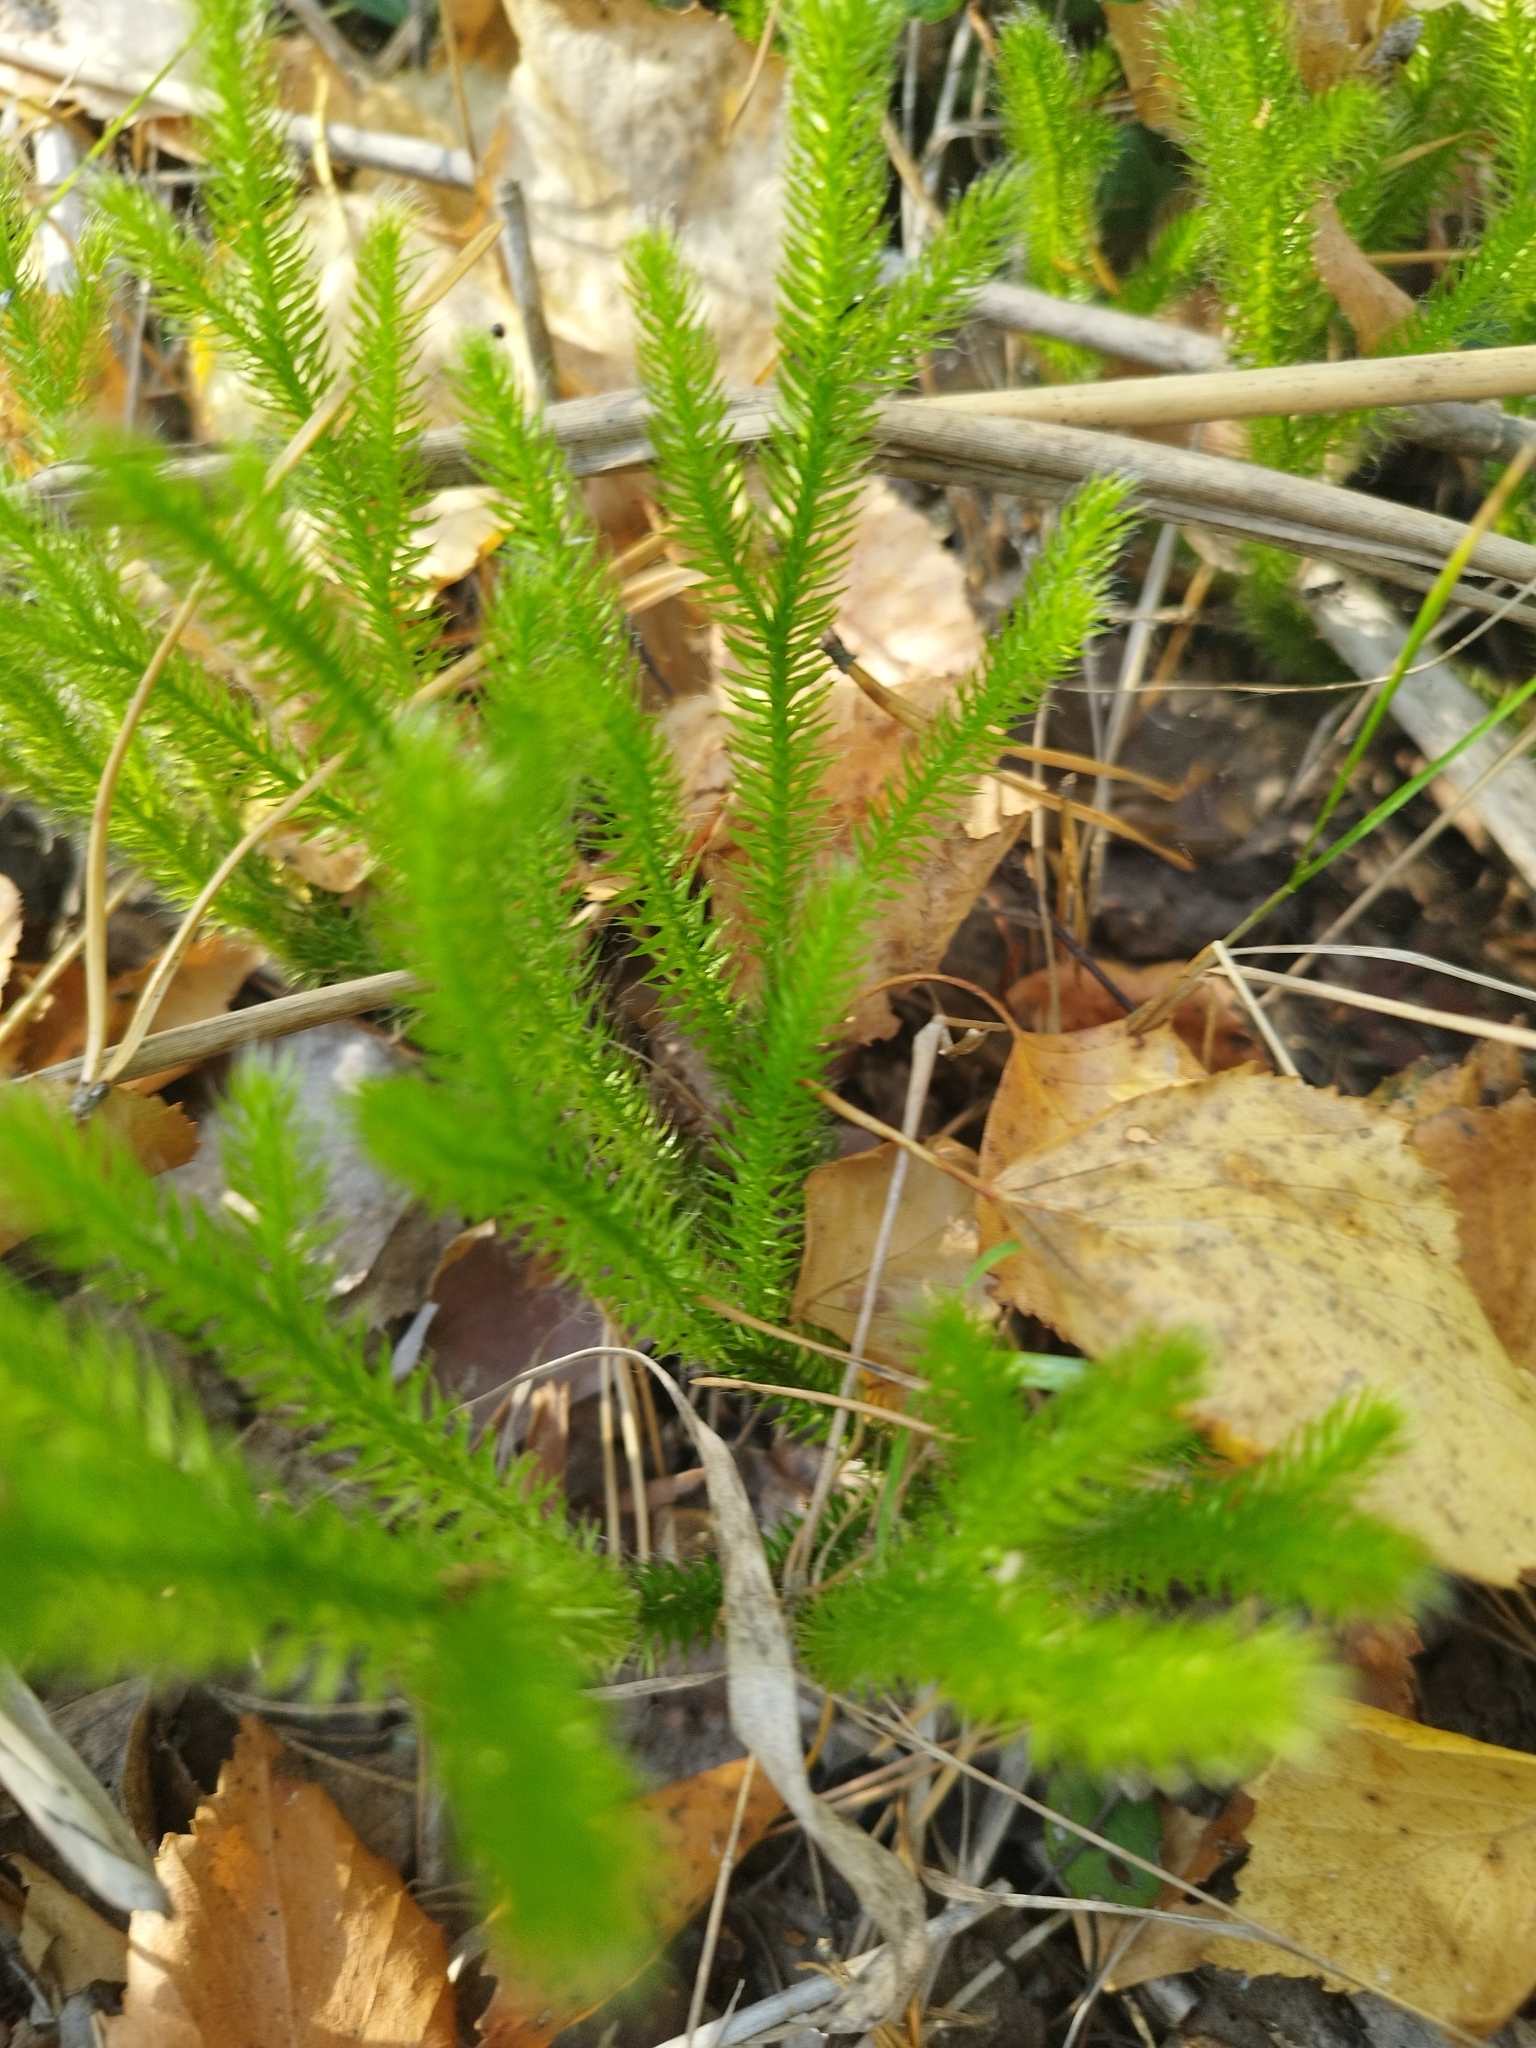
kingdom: Plantae
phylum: Tracheophyta
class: Lycopodiopsida
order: Lycopodiales
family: Lycopodiaceae
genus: Lycopodium
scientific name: Lycopodium clavatum
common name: Stag's-horn clubmoss
